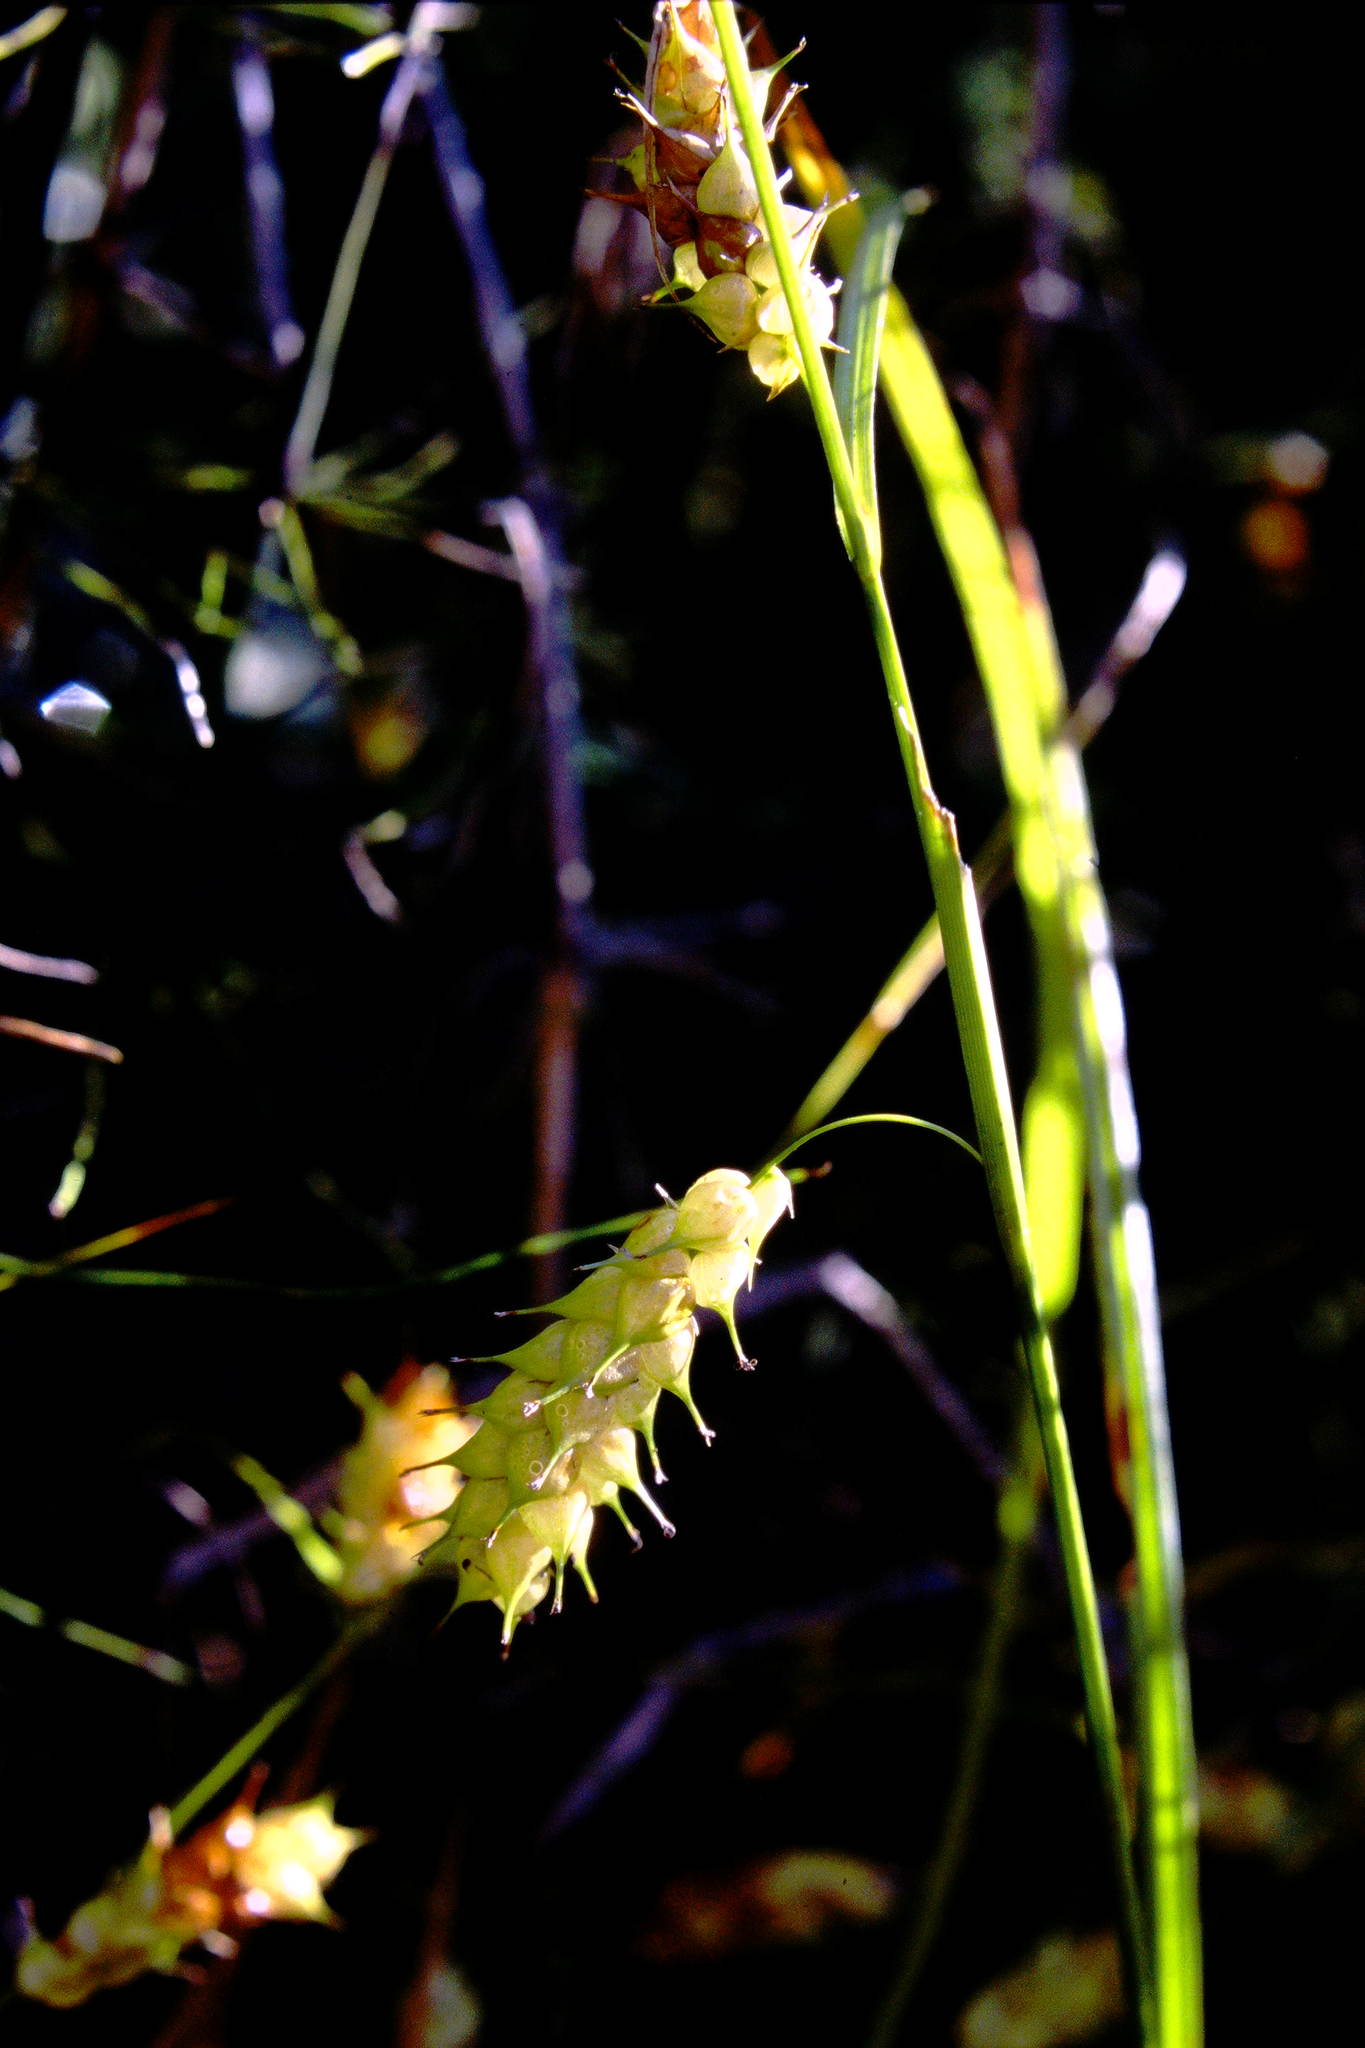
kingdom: Plantae
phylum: Tracheophyta
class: Liliopsida
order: Poales
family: Cyperaceae
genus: Carex
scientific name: Carex tuckermanii
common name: Tuckerman's sedge
